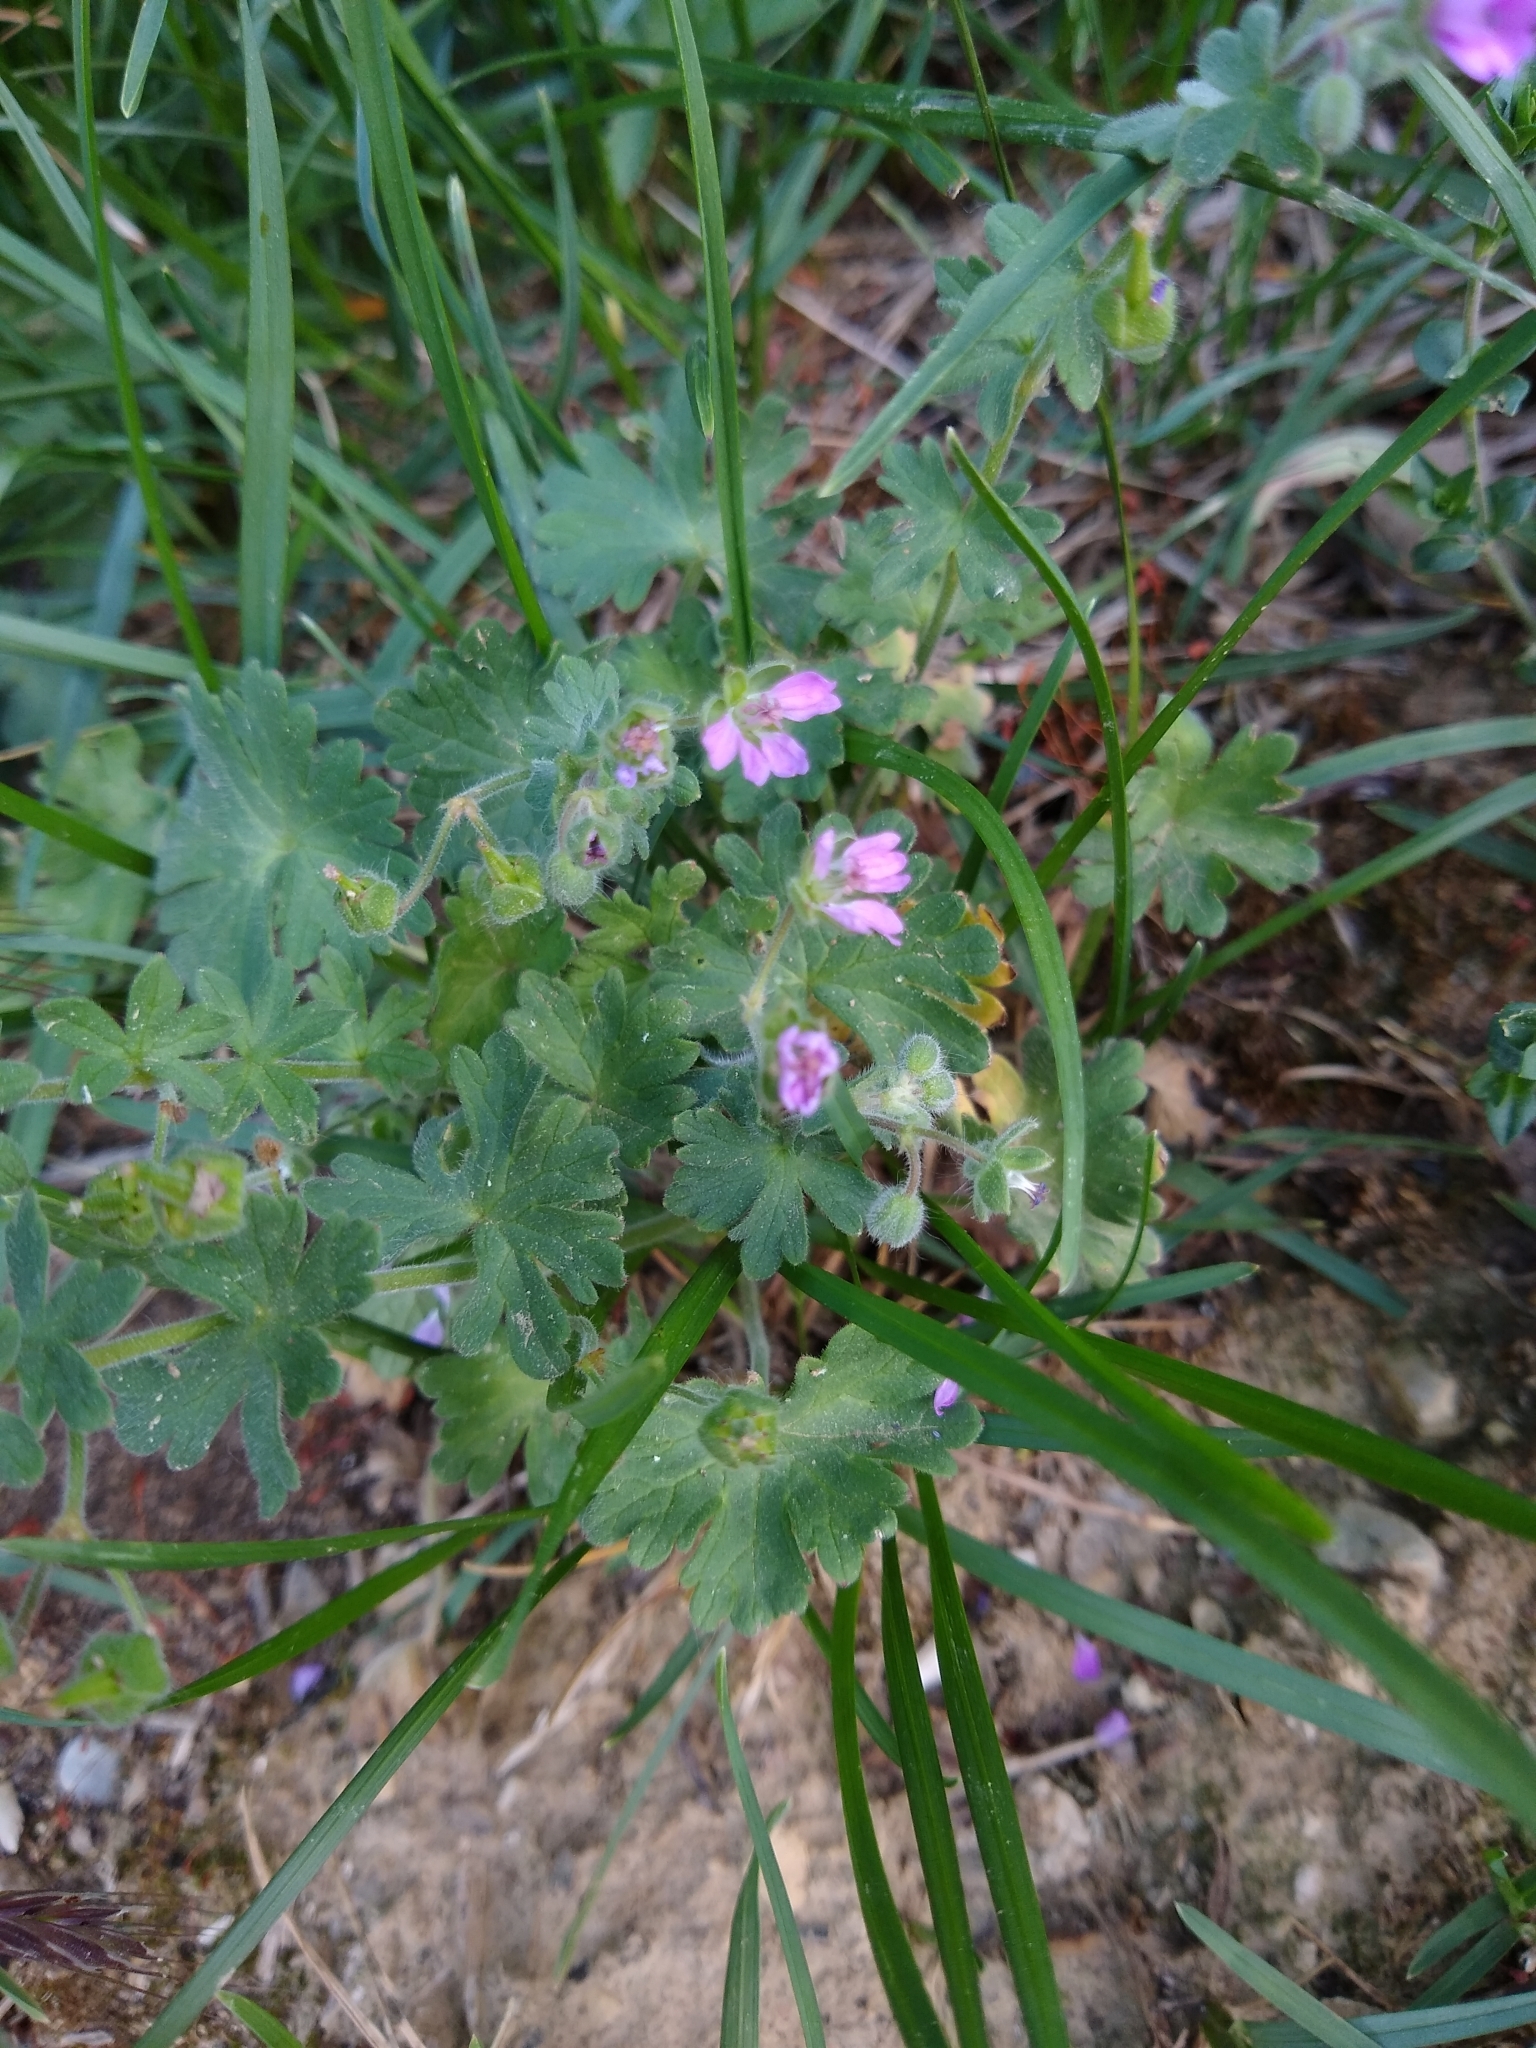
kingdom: Plantae
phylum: Tracheophyta
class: Magnoliopsida
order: Geraniales
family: Geraniaceae
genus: Geranium
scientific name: Geranium molle
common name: Dove's-foot crane's-bill
